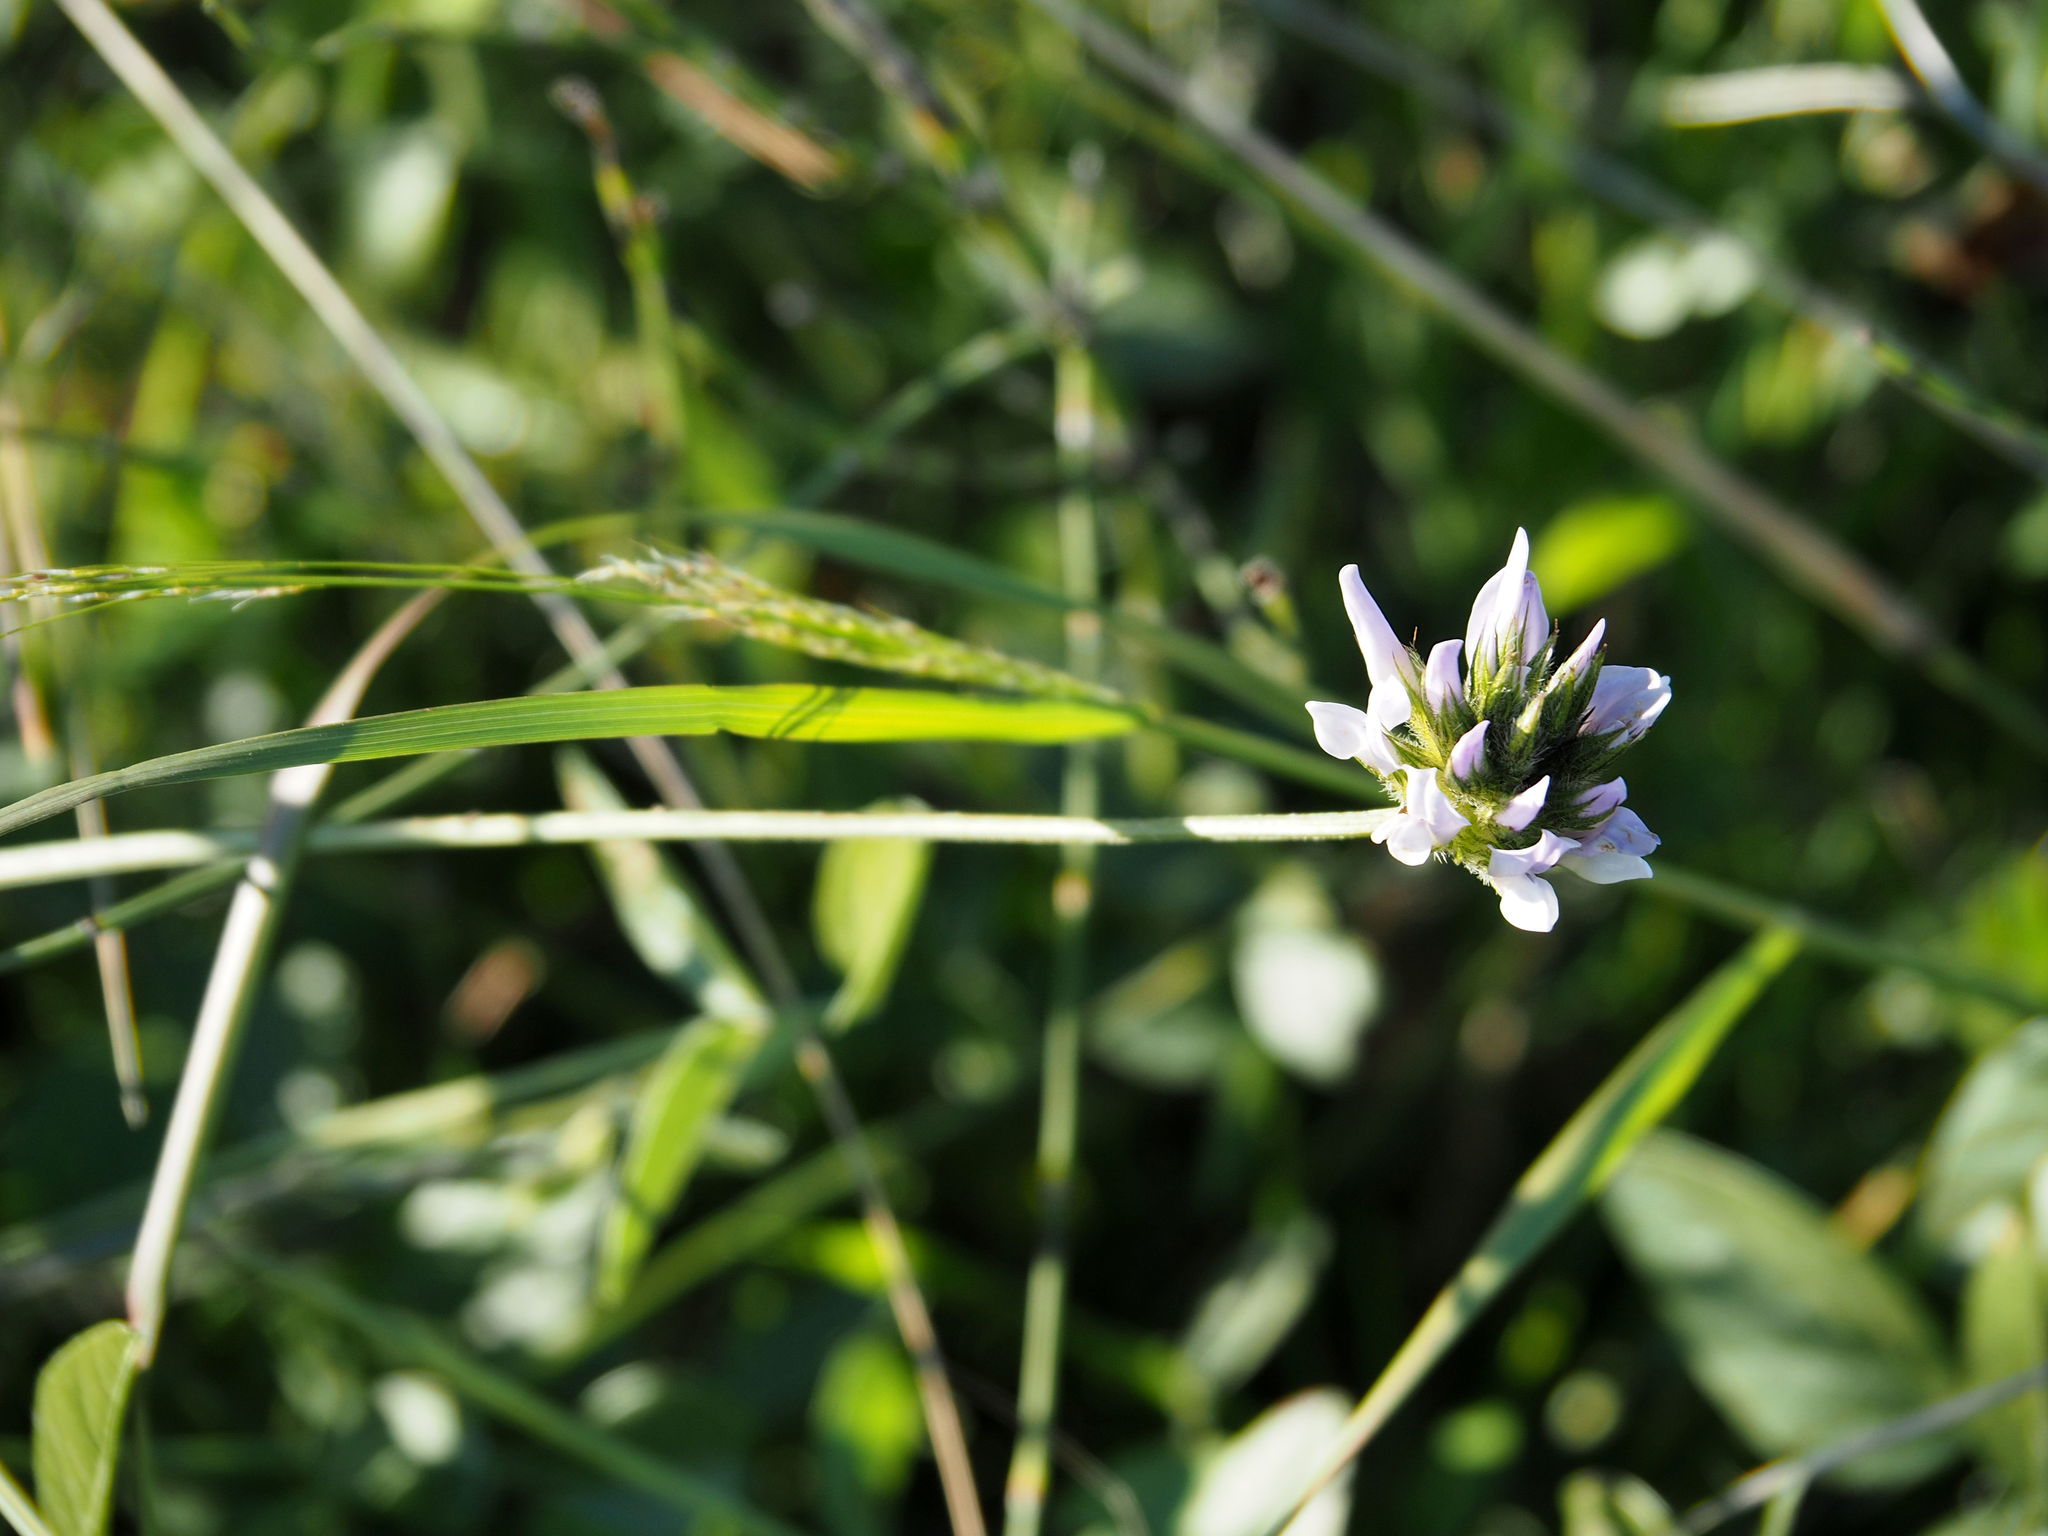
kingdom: Plantae
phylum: Tracheophyta
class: Magnoliopsida
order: Fabales
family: Fabaceae
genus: Bituminaria
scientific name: Bituminaria bituminosa
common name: Arabian pea
